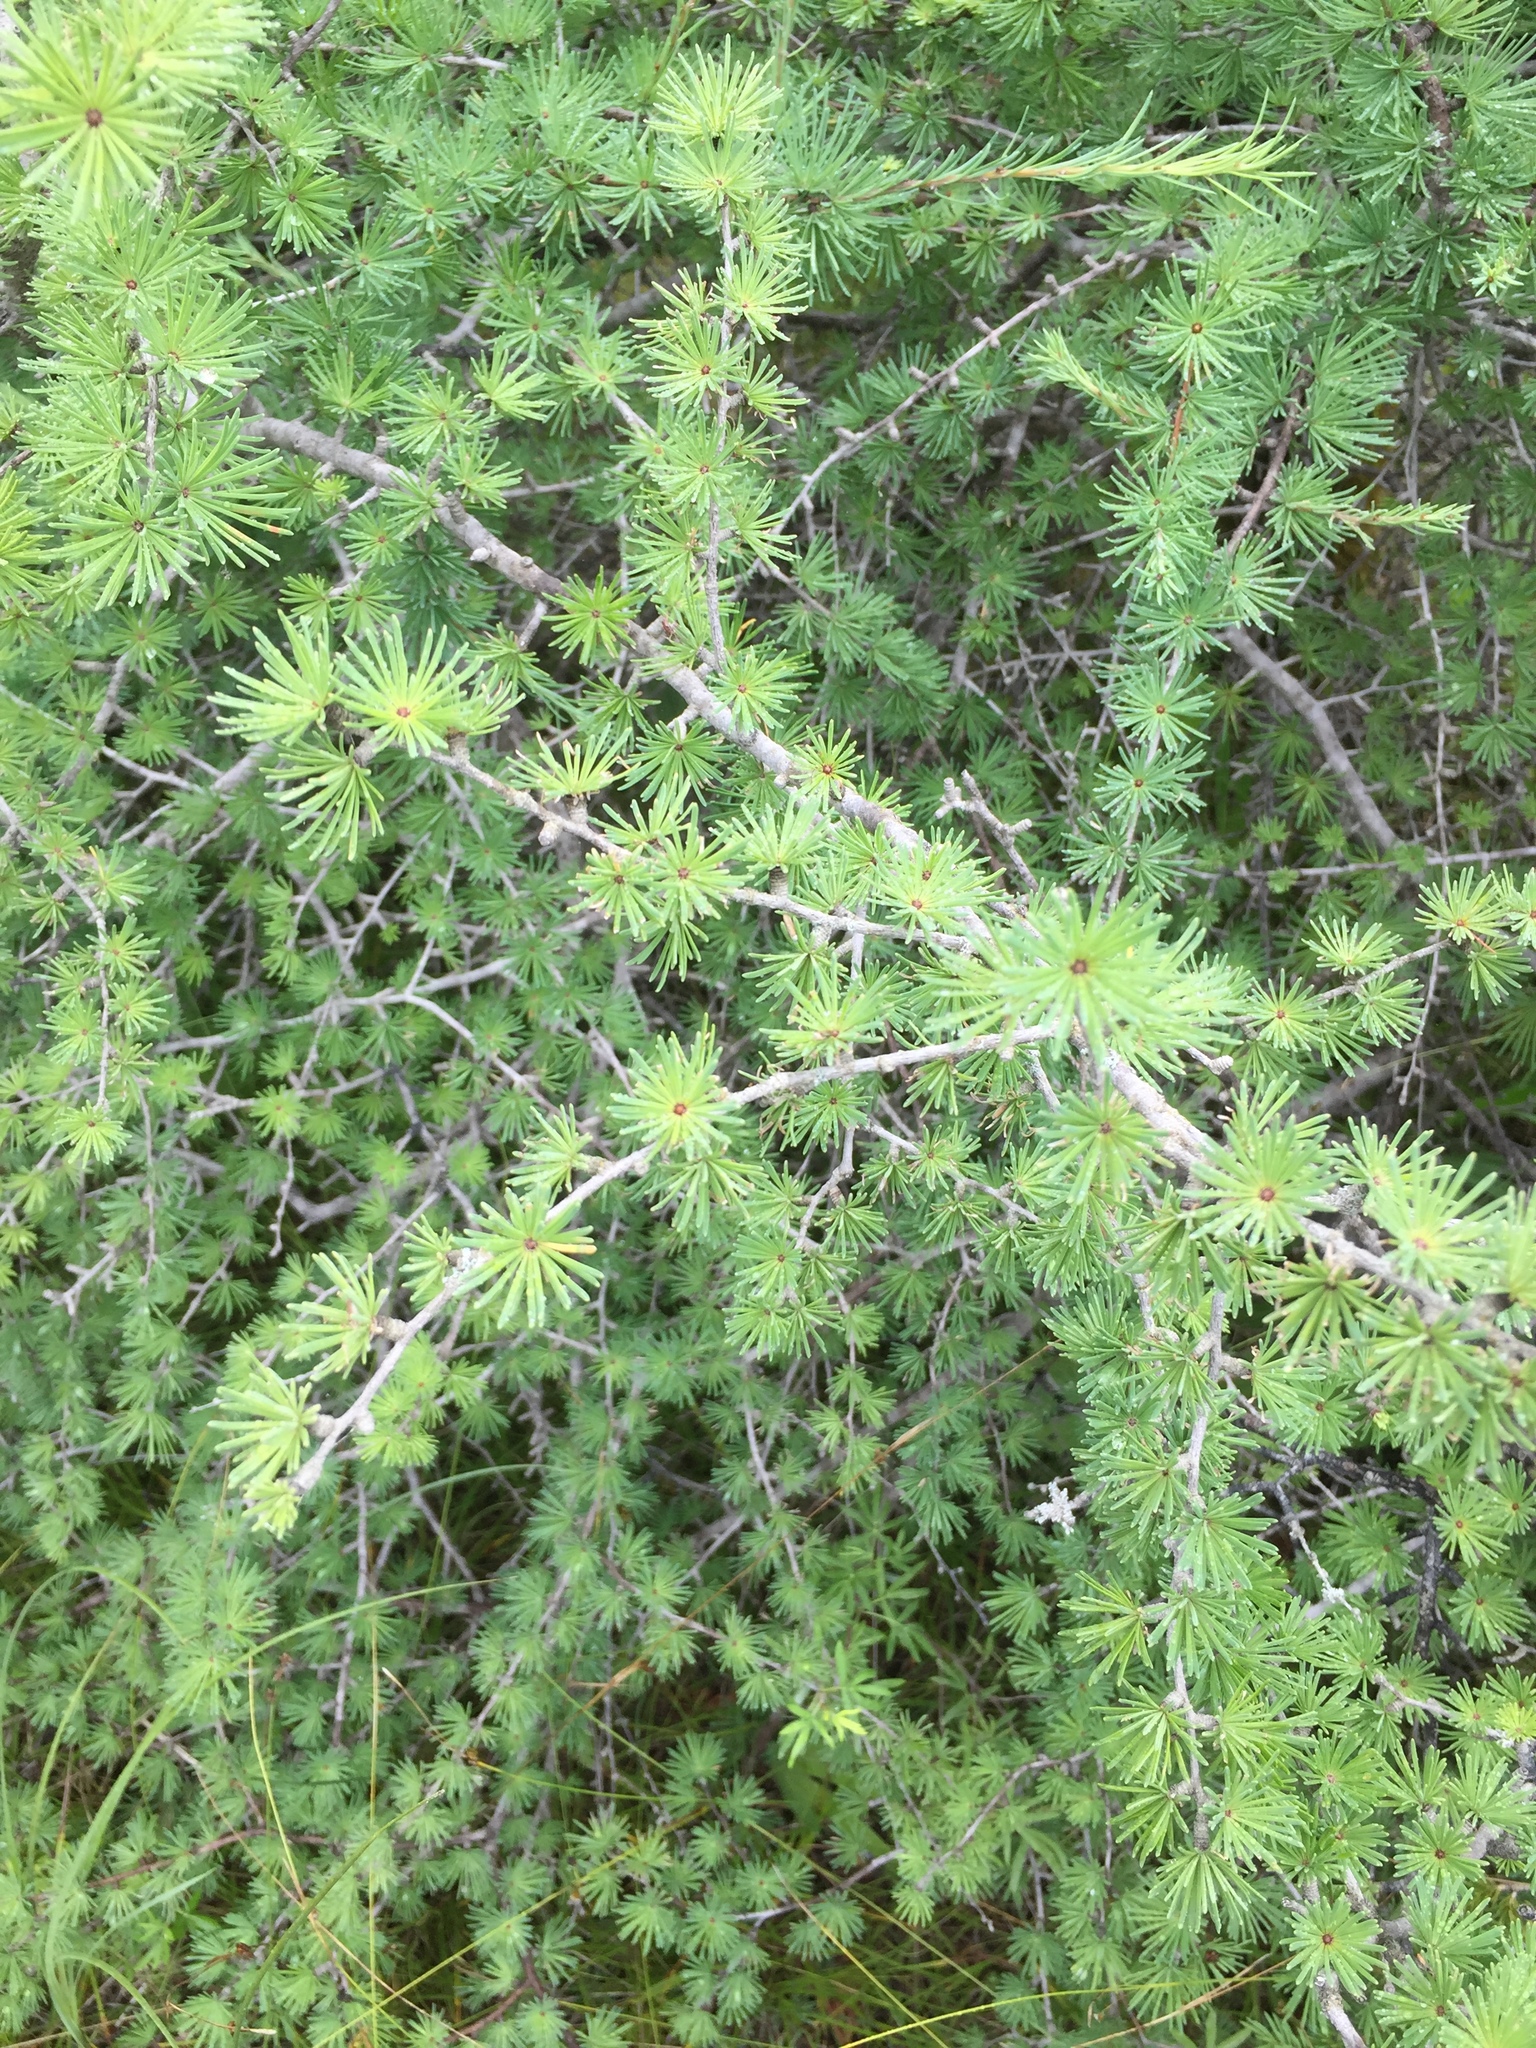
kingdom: Plantae
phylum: Tracheophyta
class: Pinopsida
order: Pinales
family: Pinaceae
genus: Larix
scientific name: Larix laricina
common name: American larch
